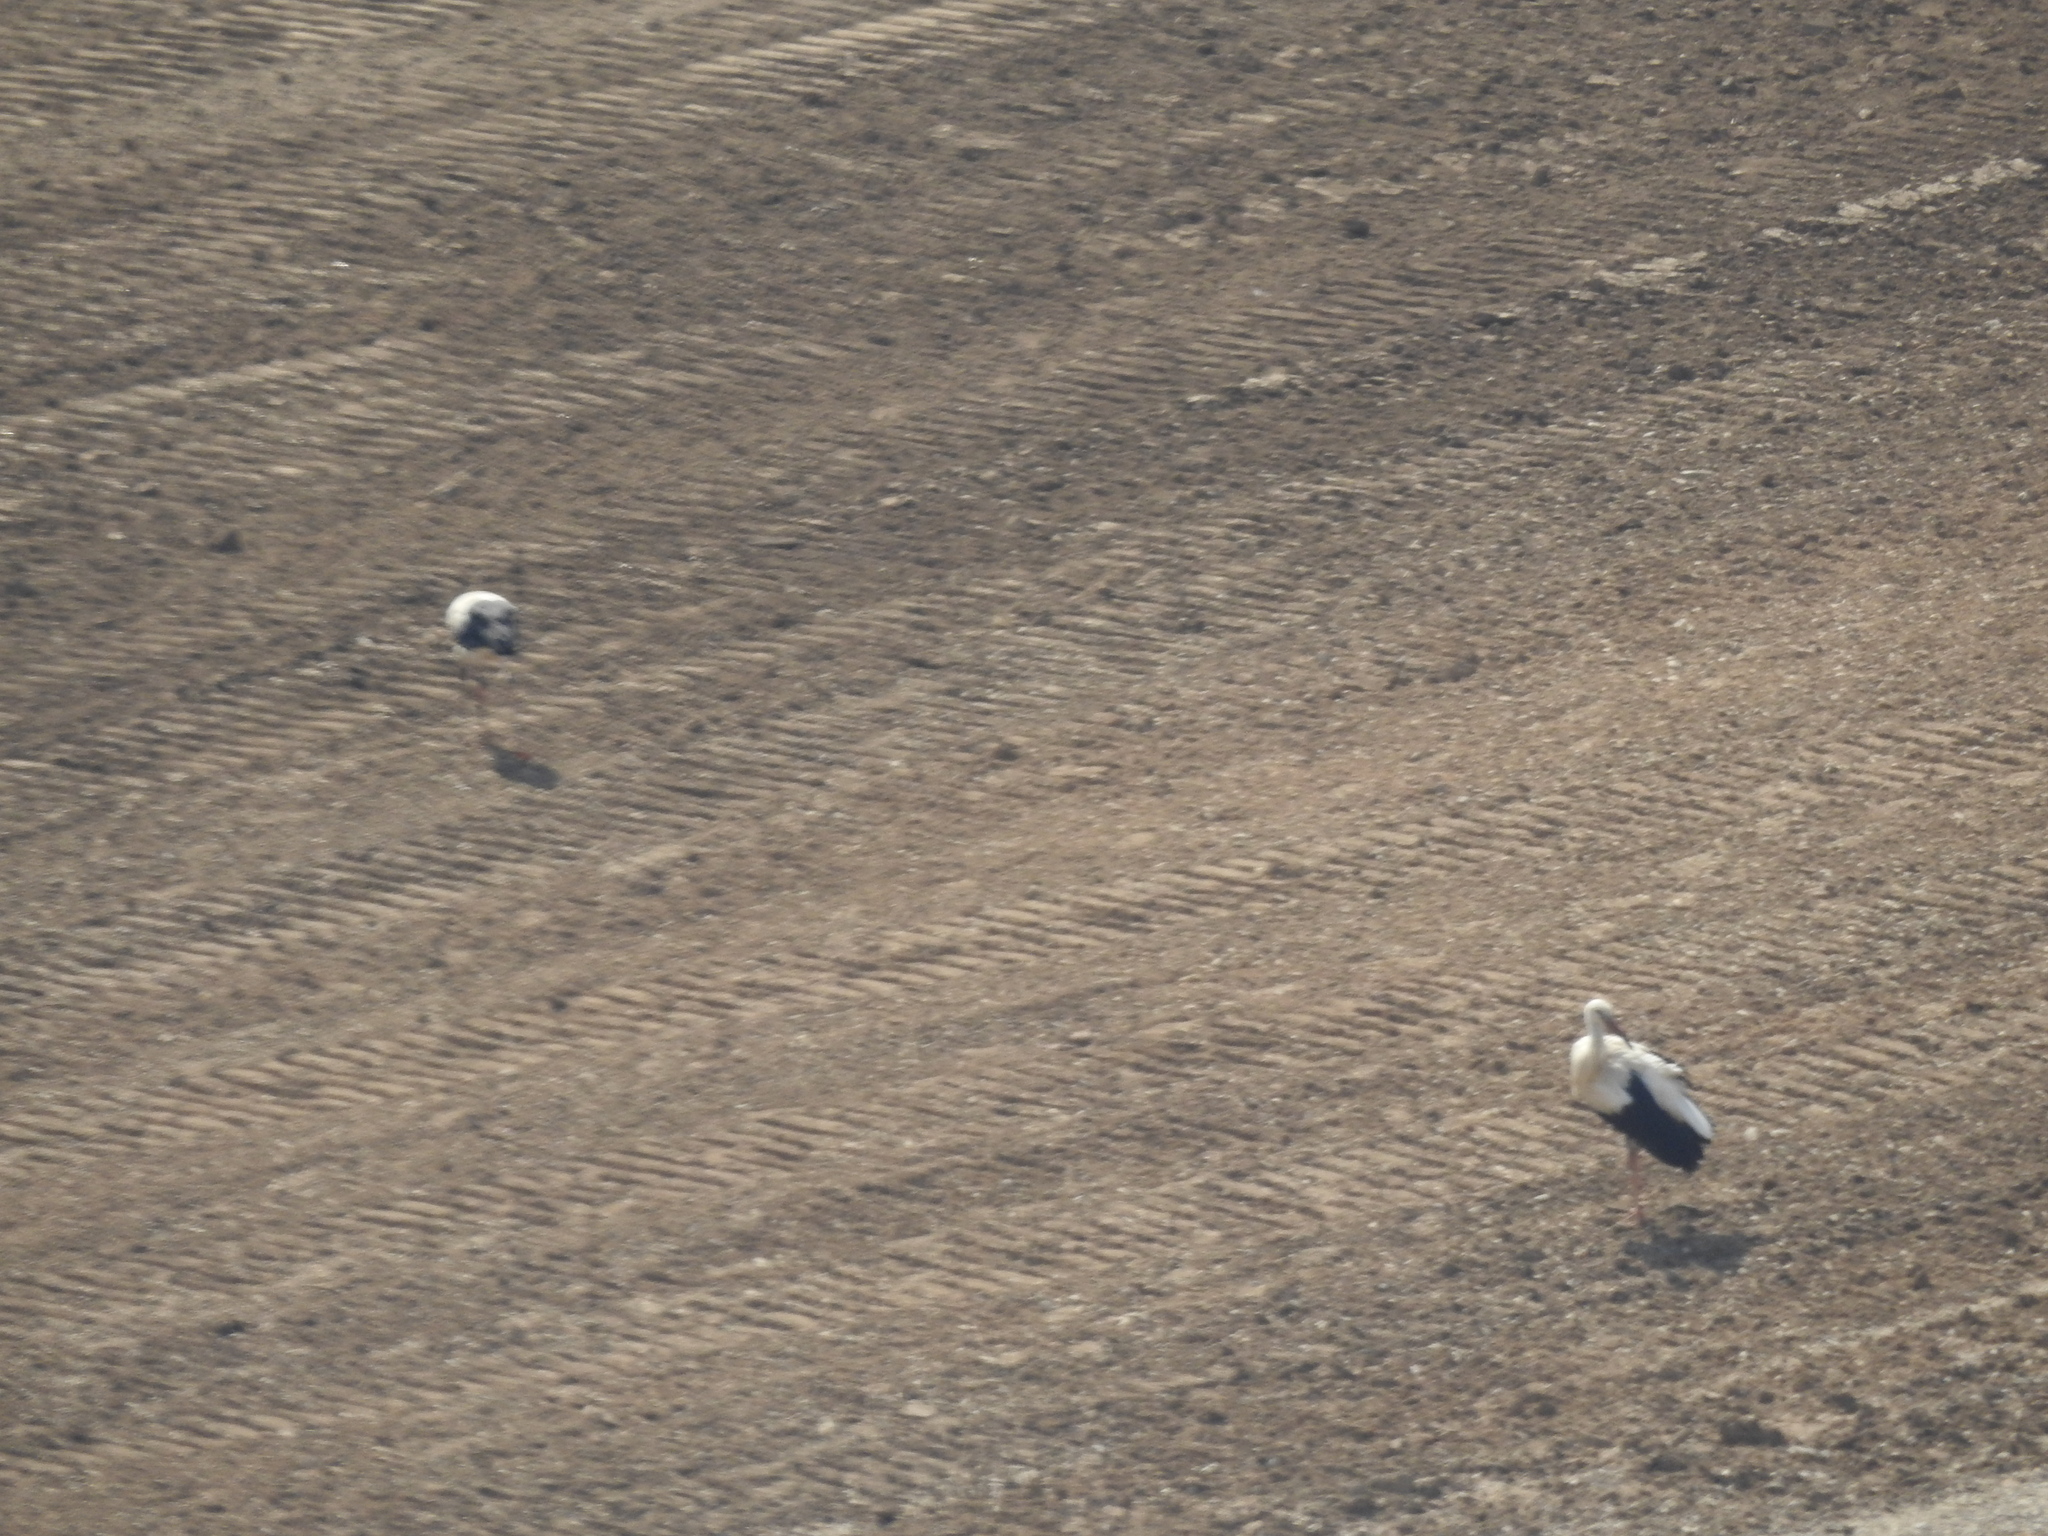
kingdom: Animalia
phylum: Chordata
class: Aves
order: Ciconiiformes
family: Ciconiidae
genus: Ciconia
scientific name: Ciconia ciconia
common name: White stork
